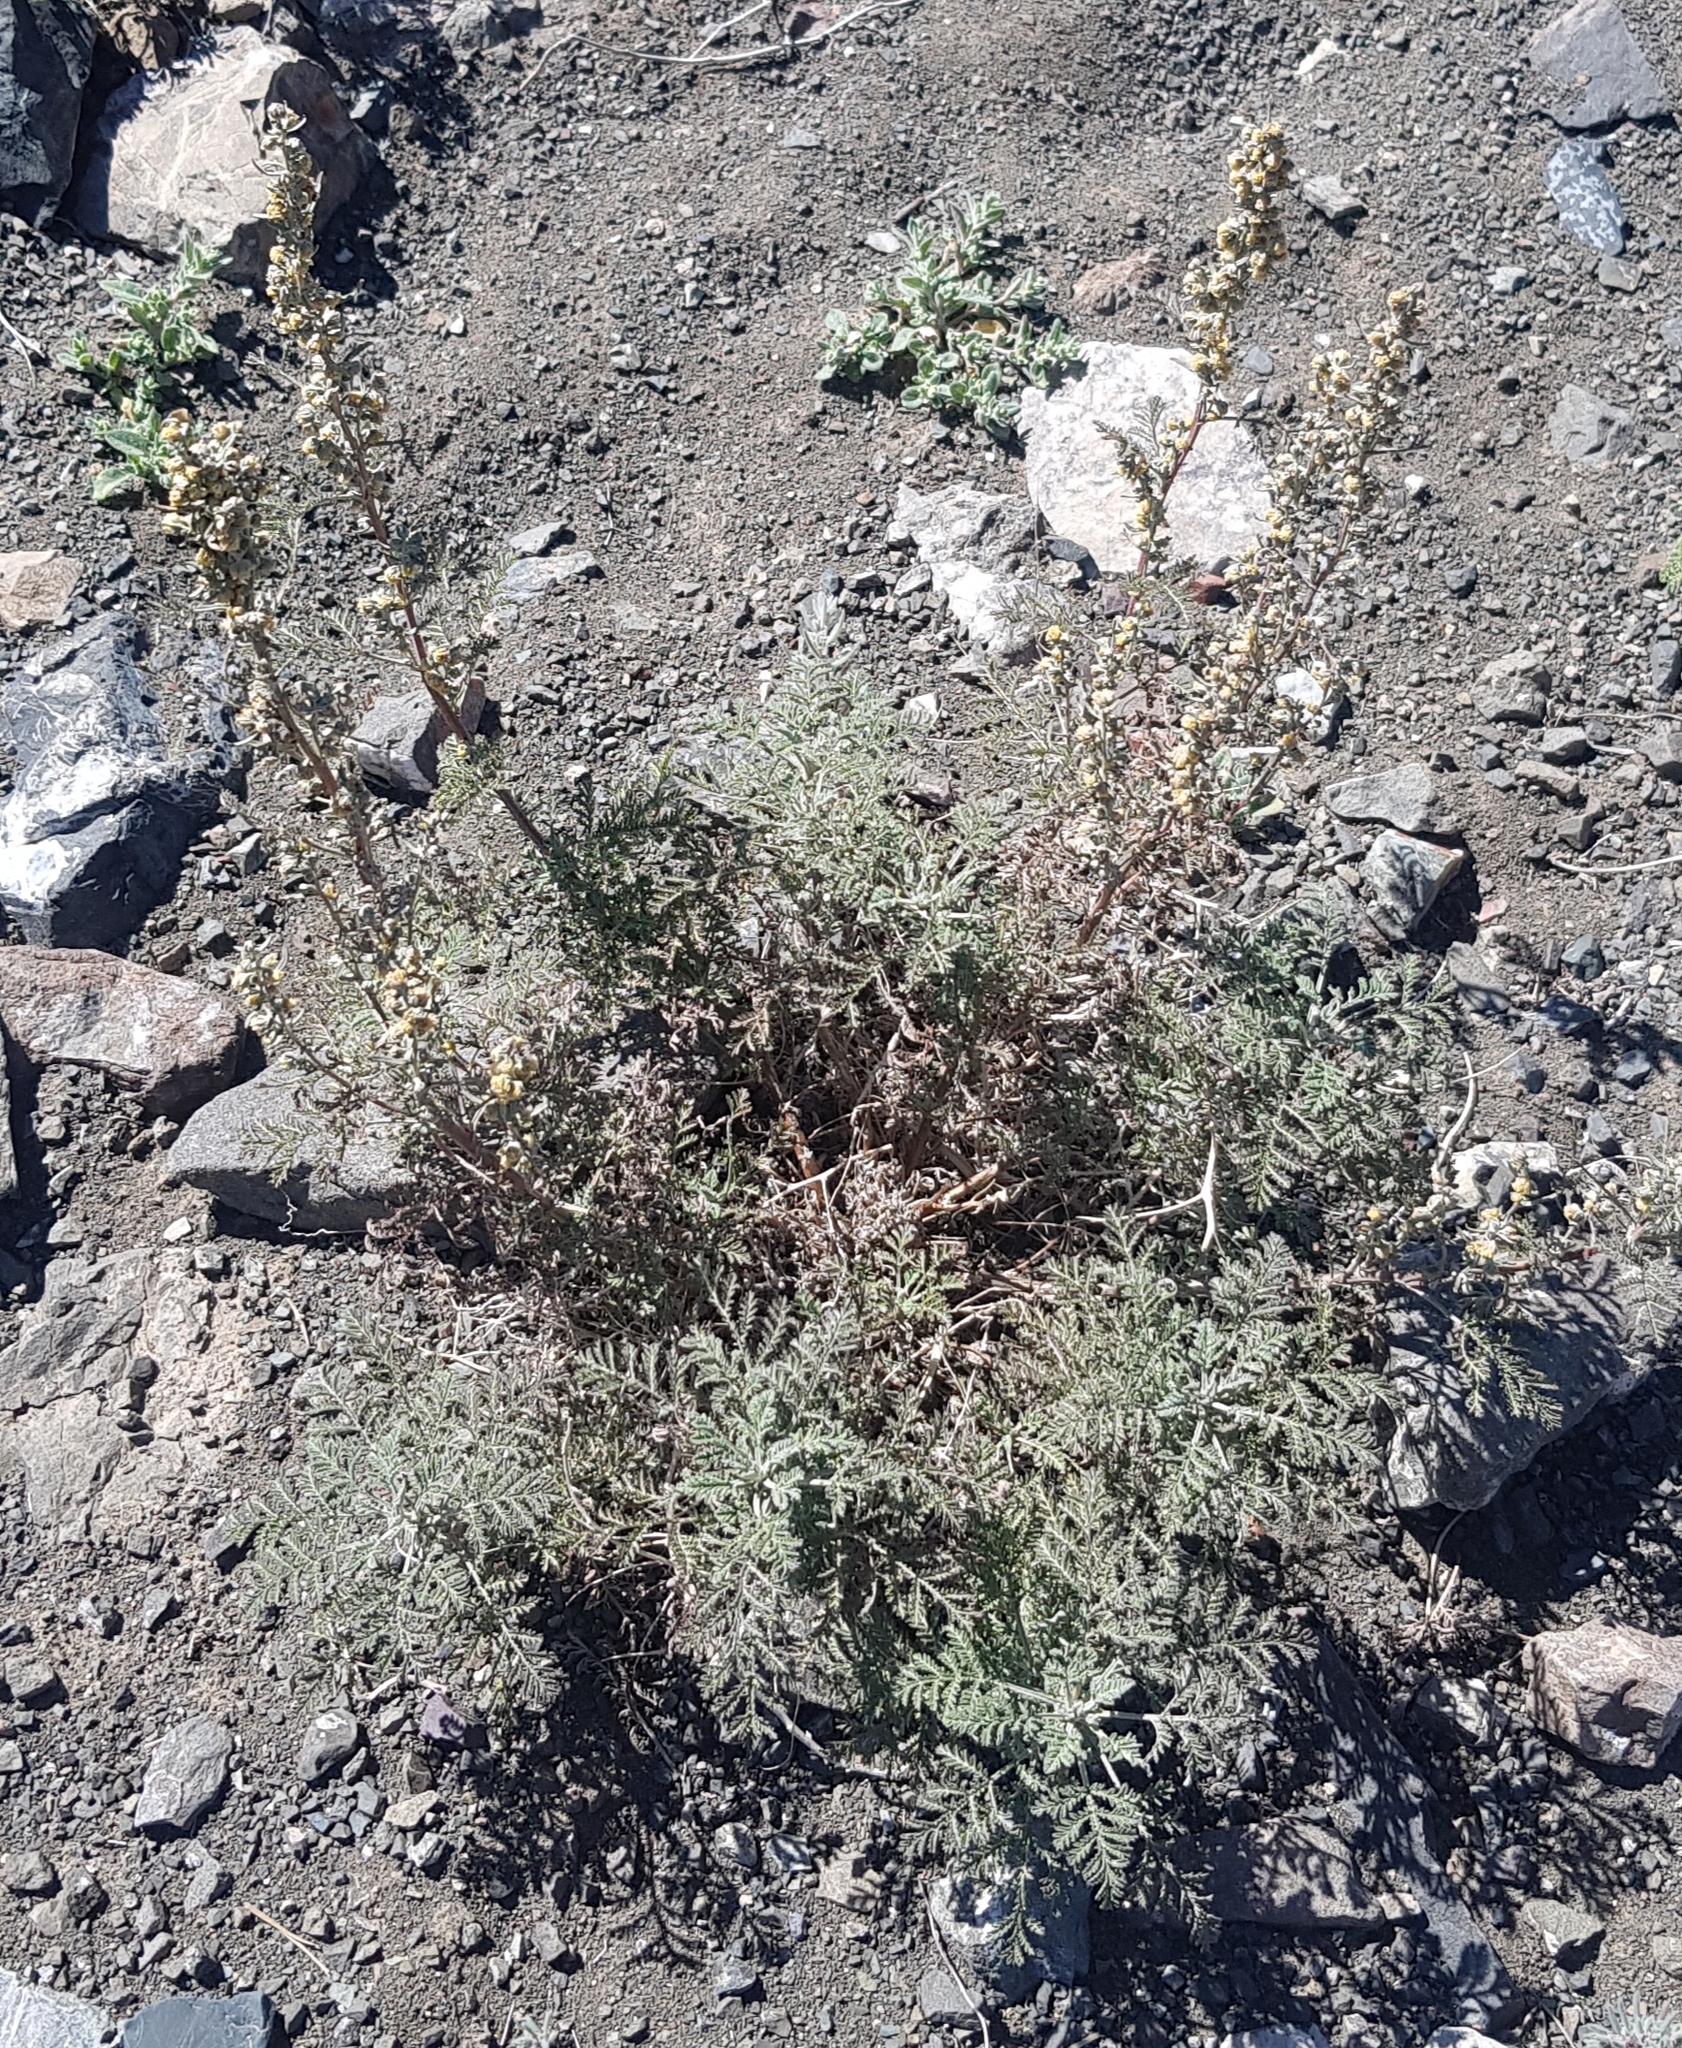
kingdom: Plantae
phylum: Tracheophyta
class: Magnoliopsida
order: Asterales
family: Asteraceae
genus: Artemisia
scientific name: Artemisia
